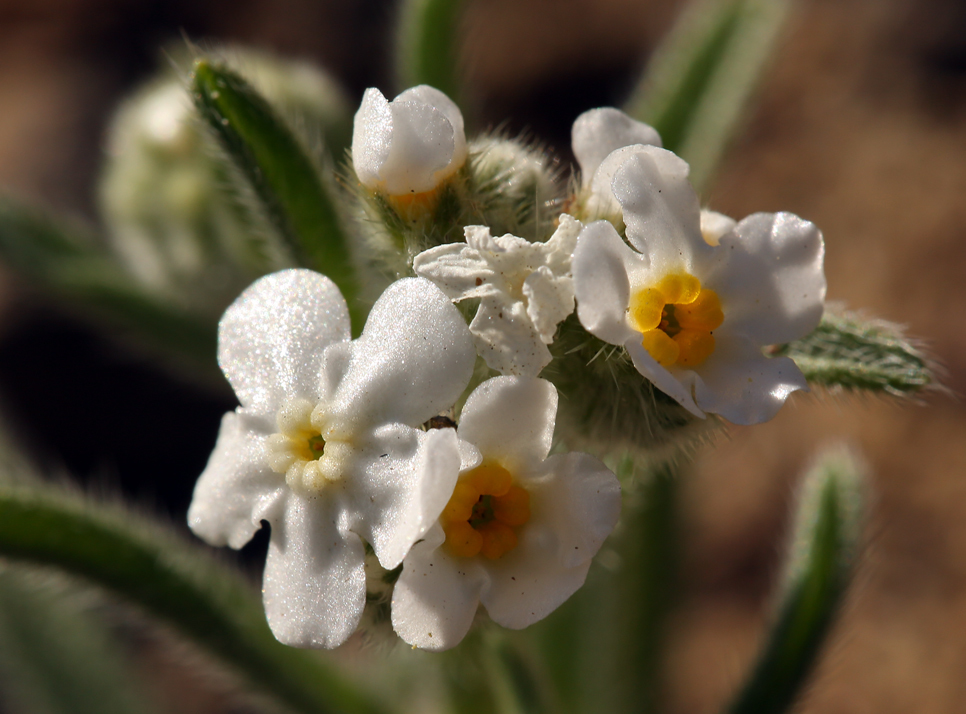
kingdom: Plantae
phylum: Tracheophyta
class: Magnoliopsida
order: Boraginales
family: Boraginaceae
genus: Cryptantha
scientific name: Cryptantha utahensis
